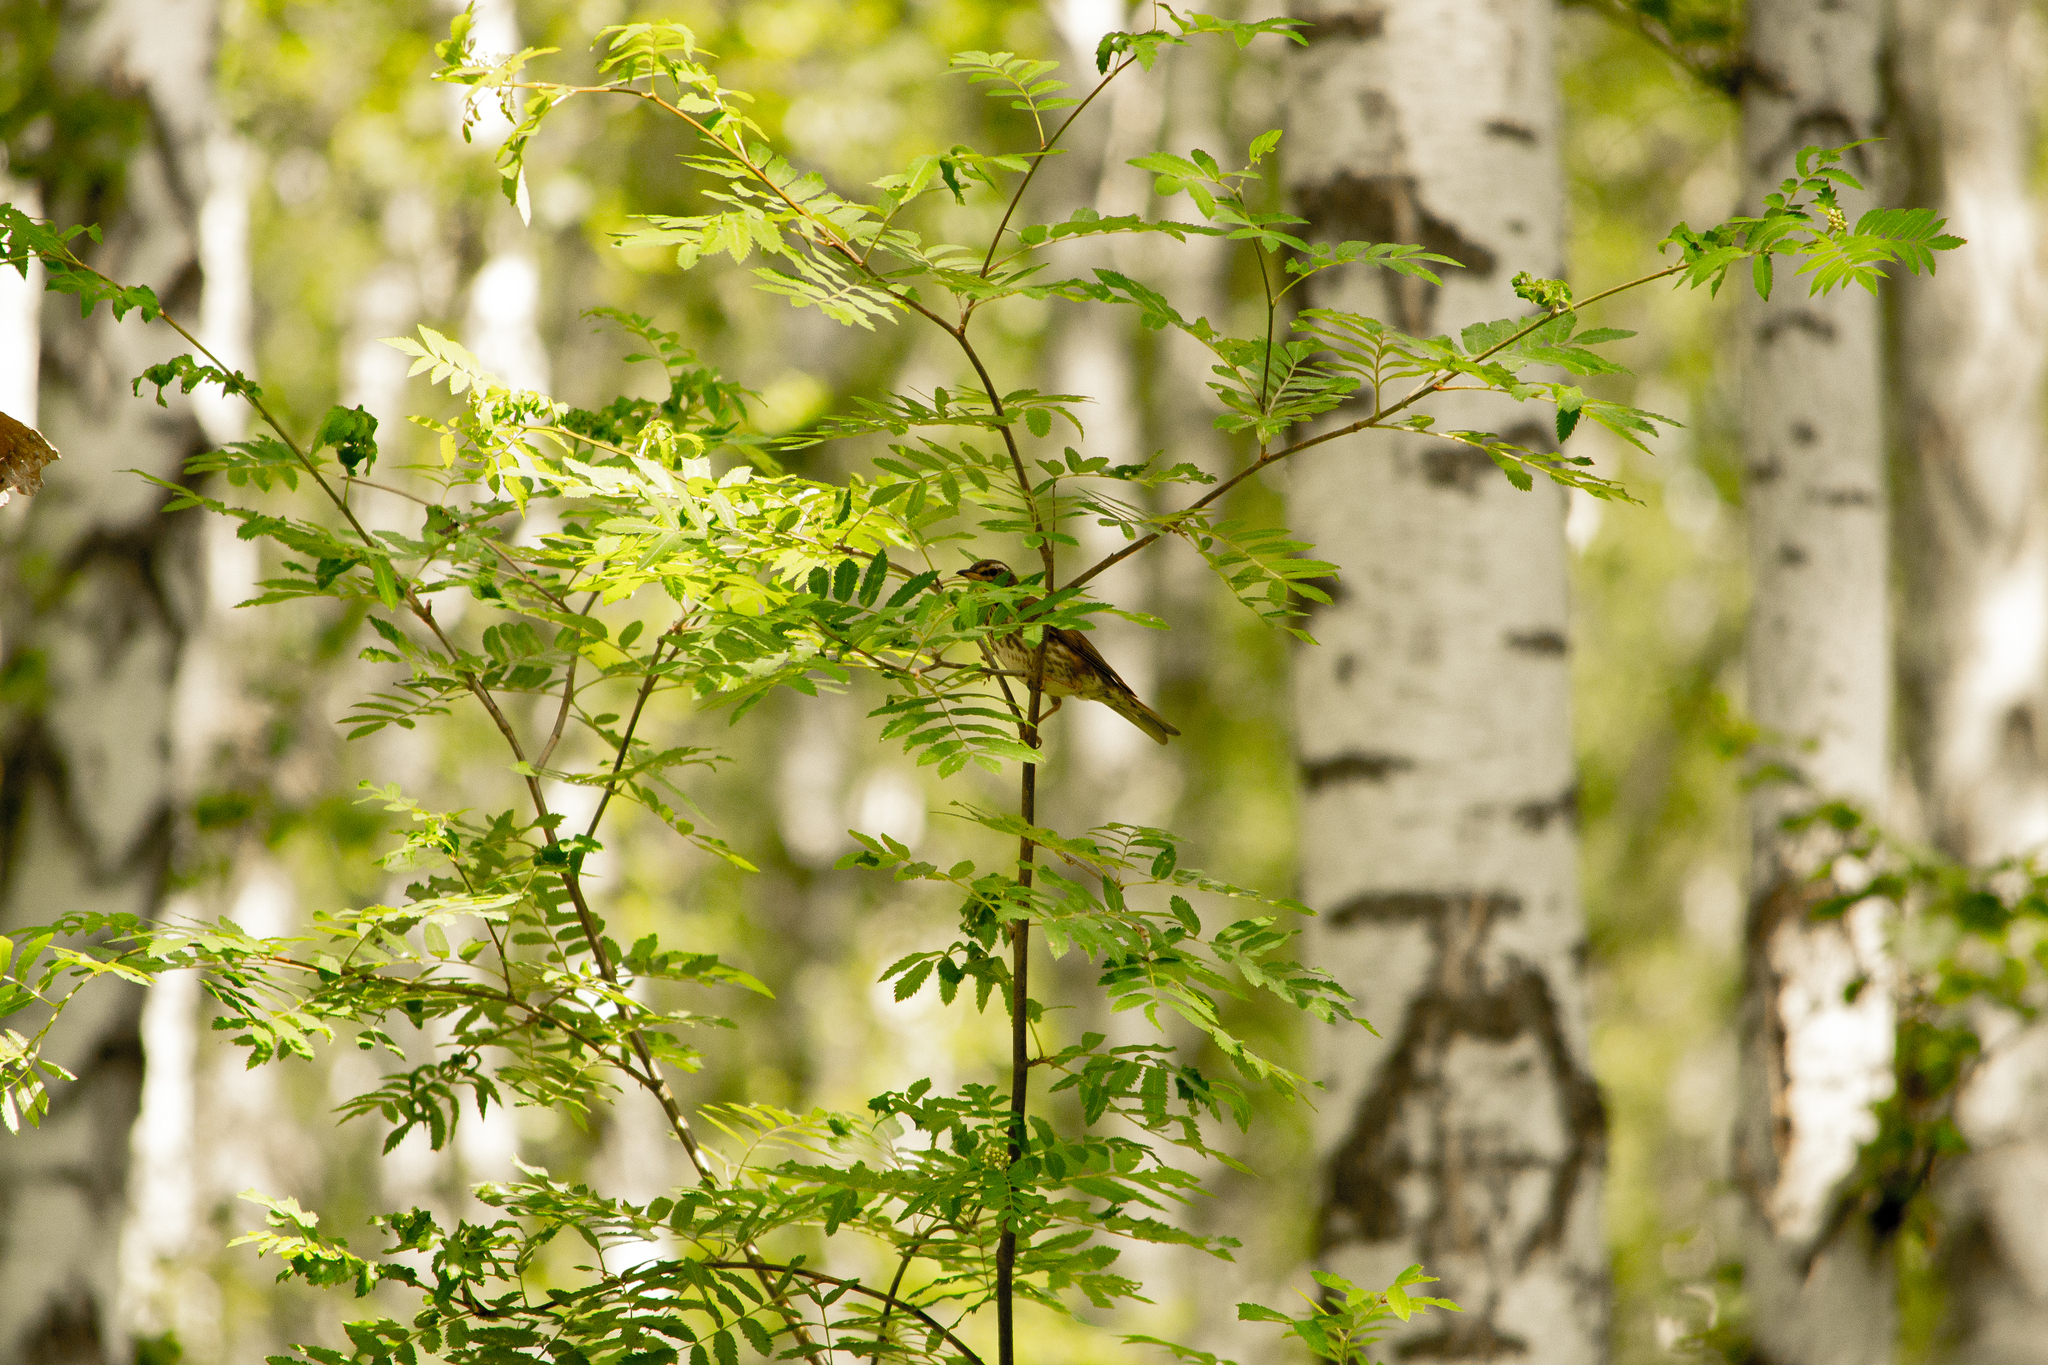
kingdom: Animalia
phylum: Chordata
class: Aves
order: Passeriformes
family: Turdidae
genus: Turdus
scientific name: Turdus iliacus
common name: Redwing
